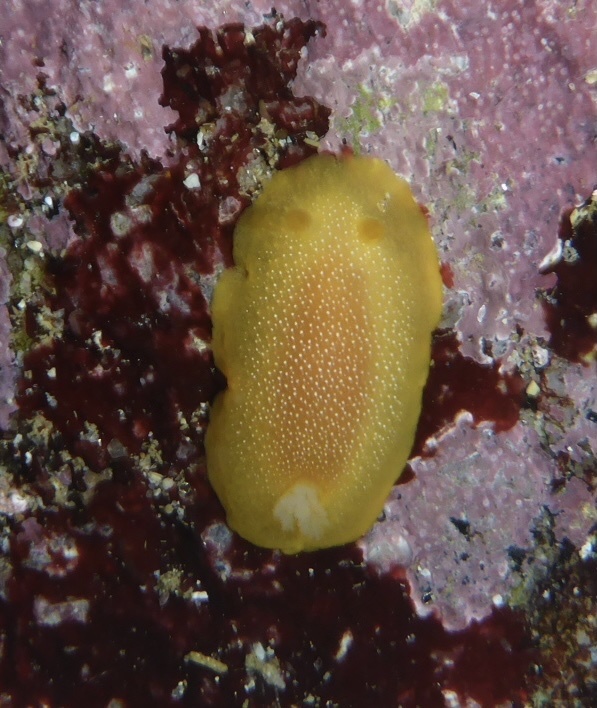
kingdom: Animalia
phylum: Mollusca
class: Gastropoda
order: Nudibranchia
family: Dendrodorididae
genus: Doriopsilla
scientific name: Doriopsilla albopunctata
